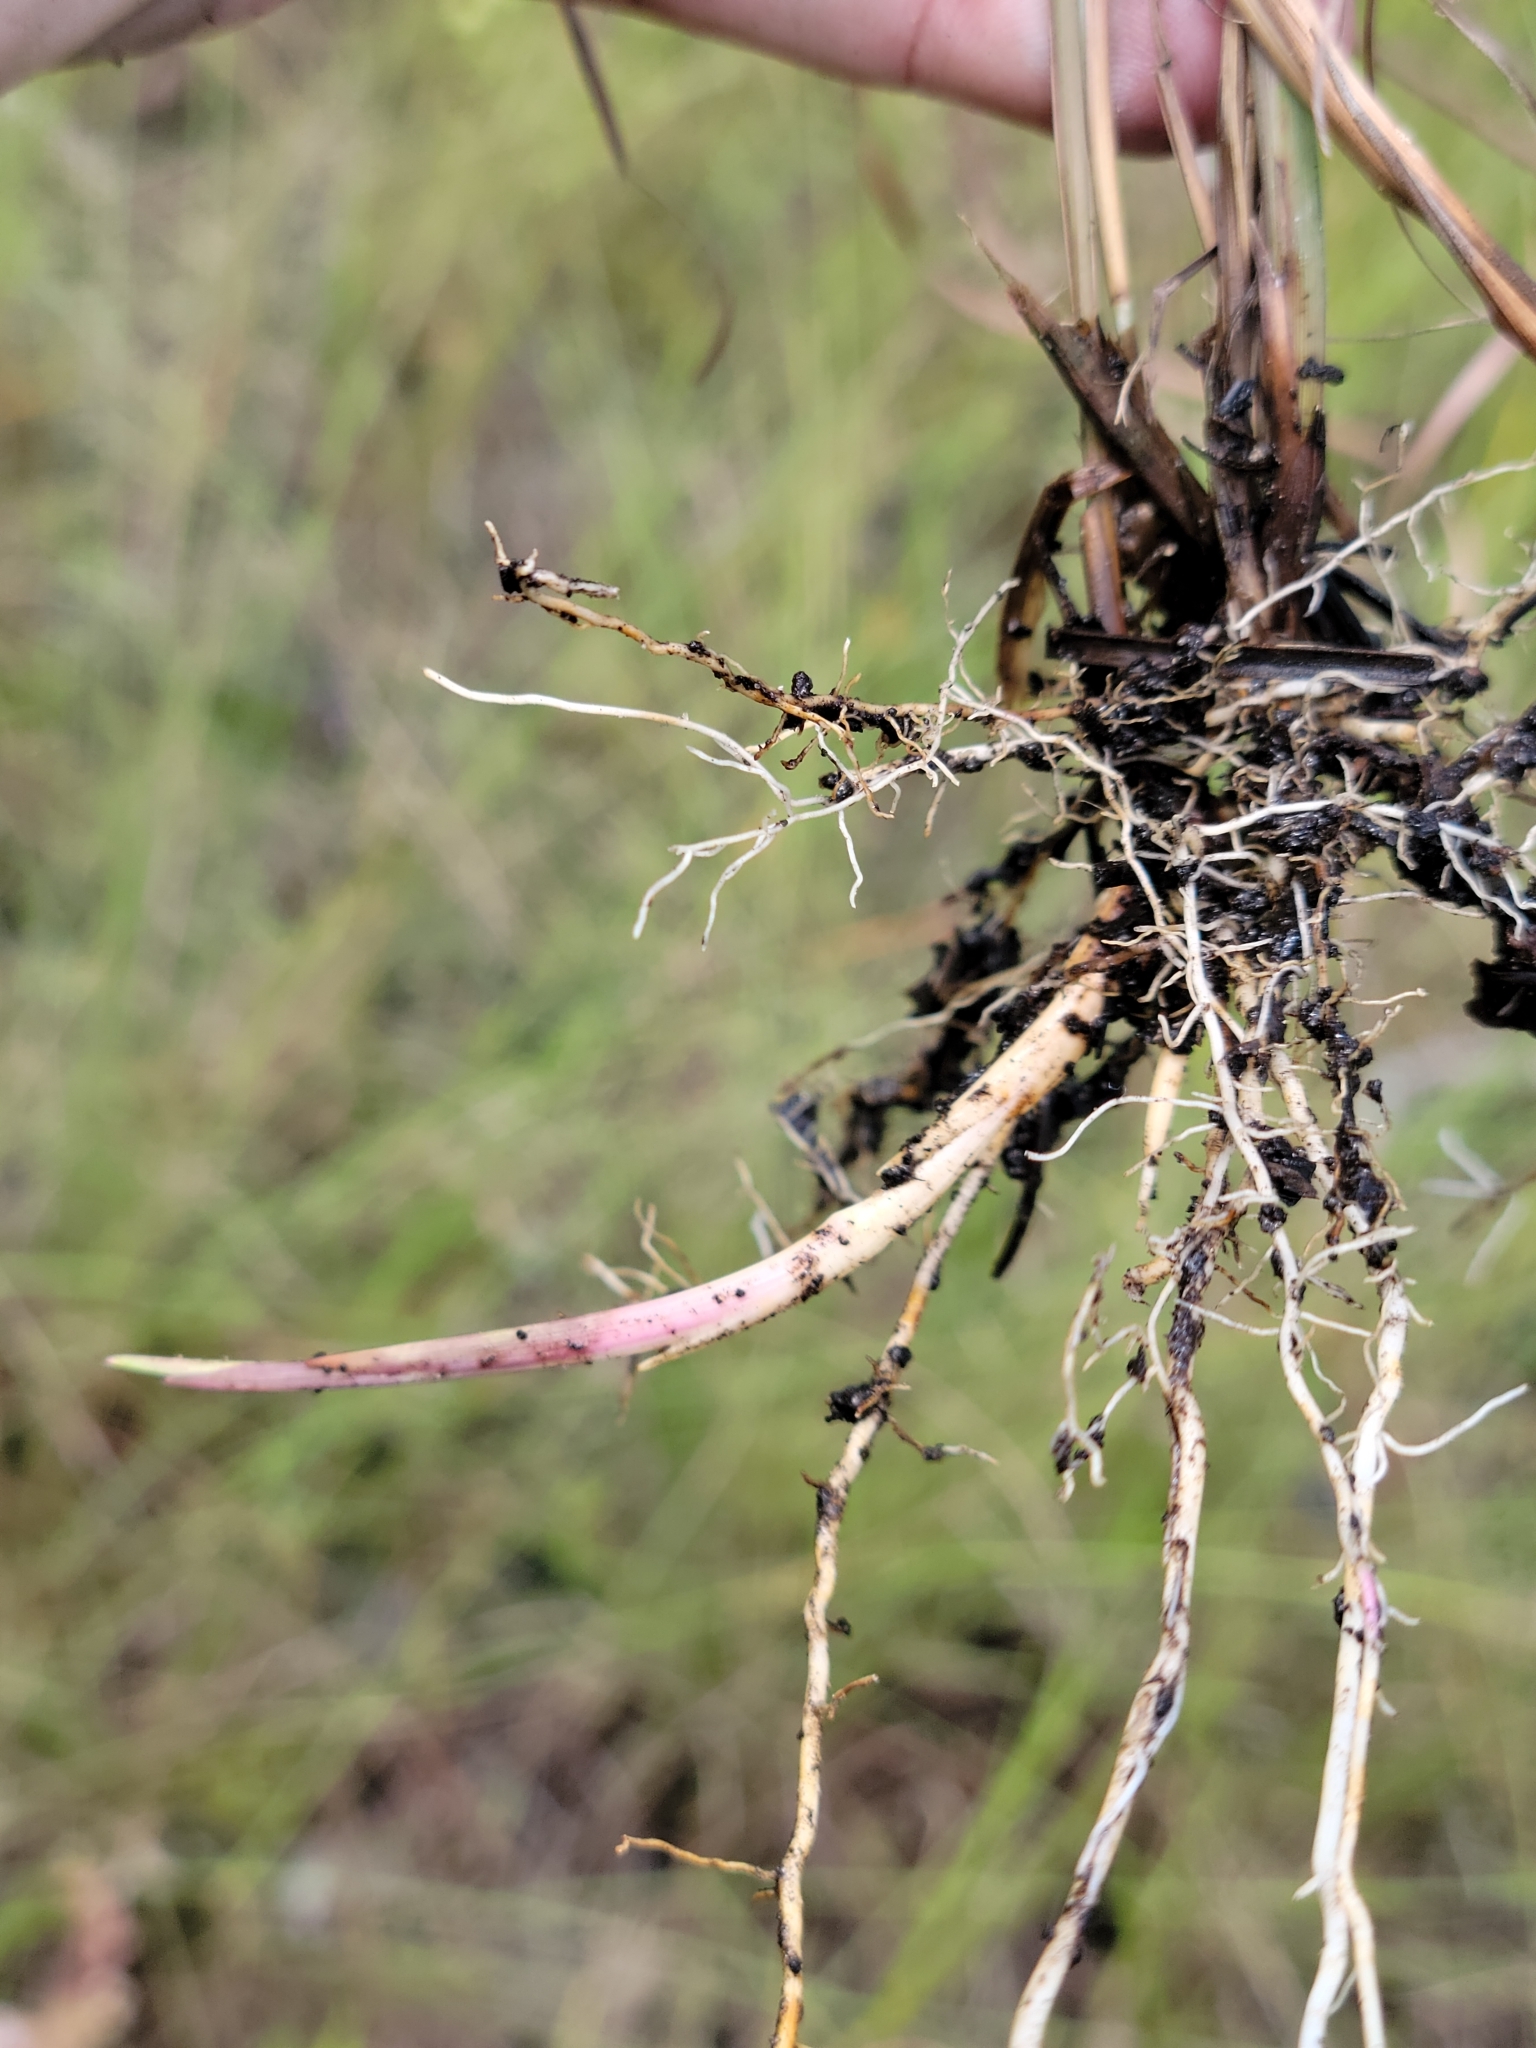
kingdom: Plantae
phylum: Tracheophyta
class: Liliopsida
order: Poales
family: Poaceae
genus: Schizachyrium
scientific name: Schizachyrium rhizomatum
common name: Florida little bluestem
